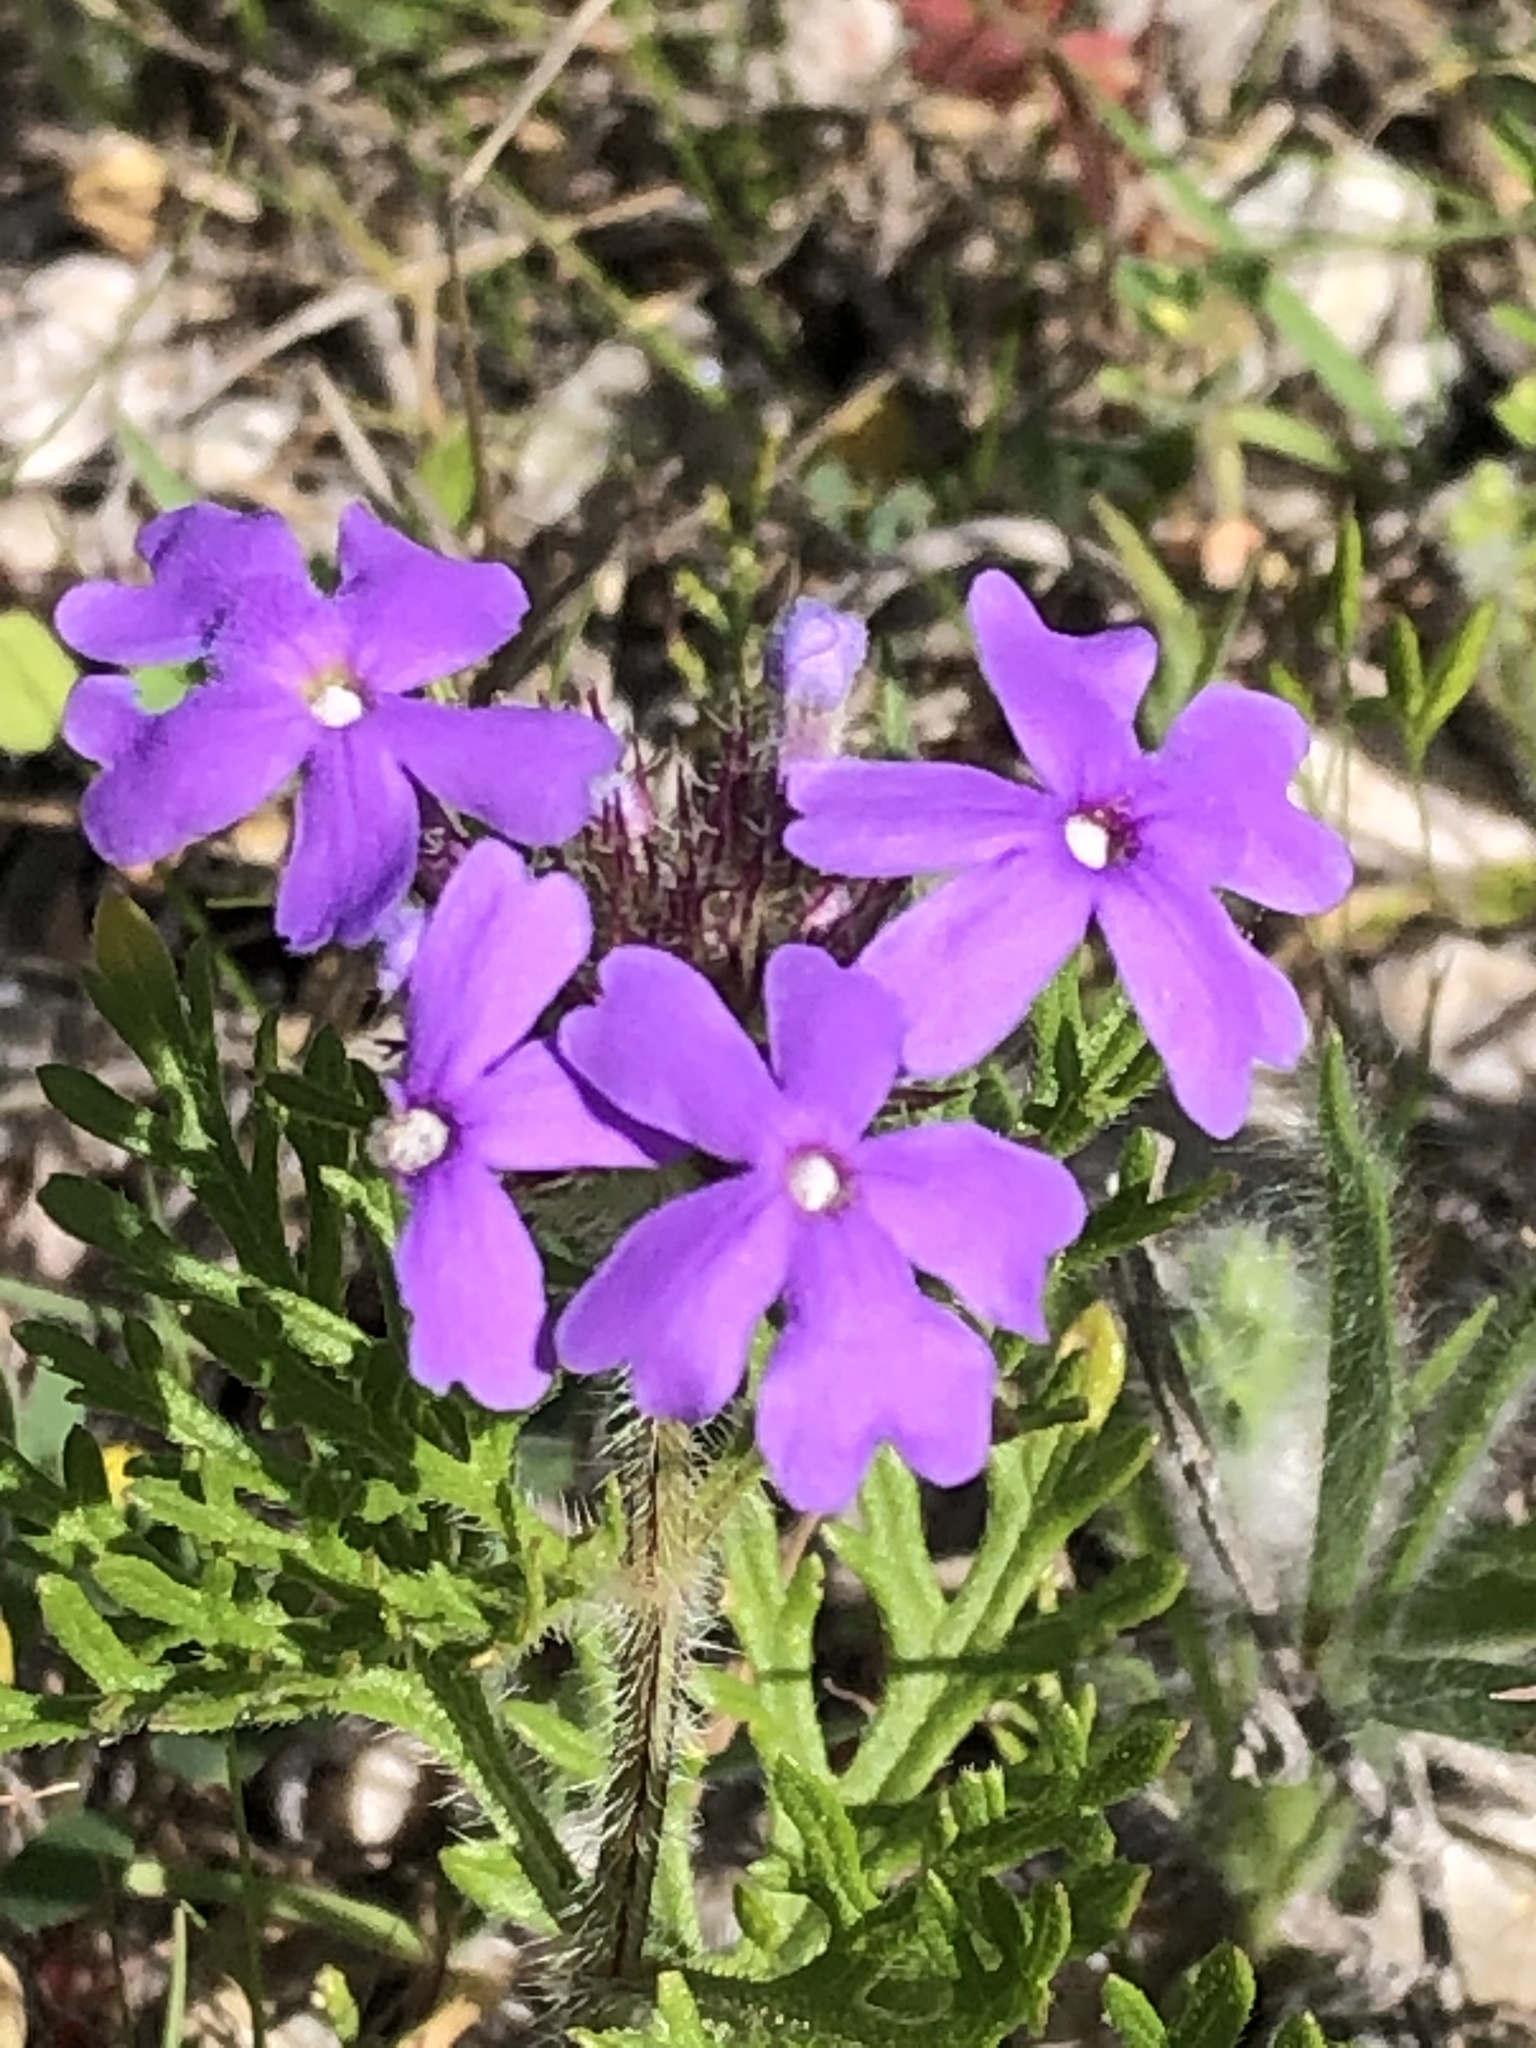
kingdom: Plantae
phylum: Tracheophyta
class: Magnoliopsida
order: Lamiales
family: Verbenaceae
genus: Verbena
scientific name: Verbena bipinnatifida
